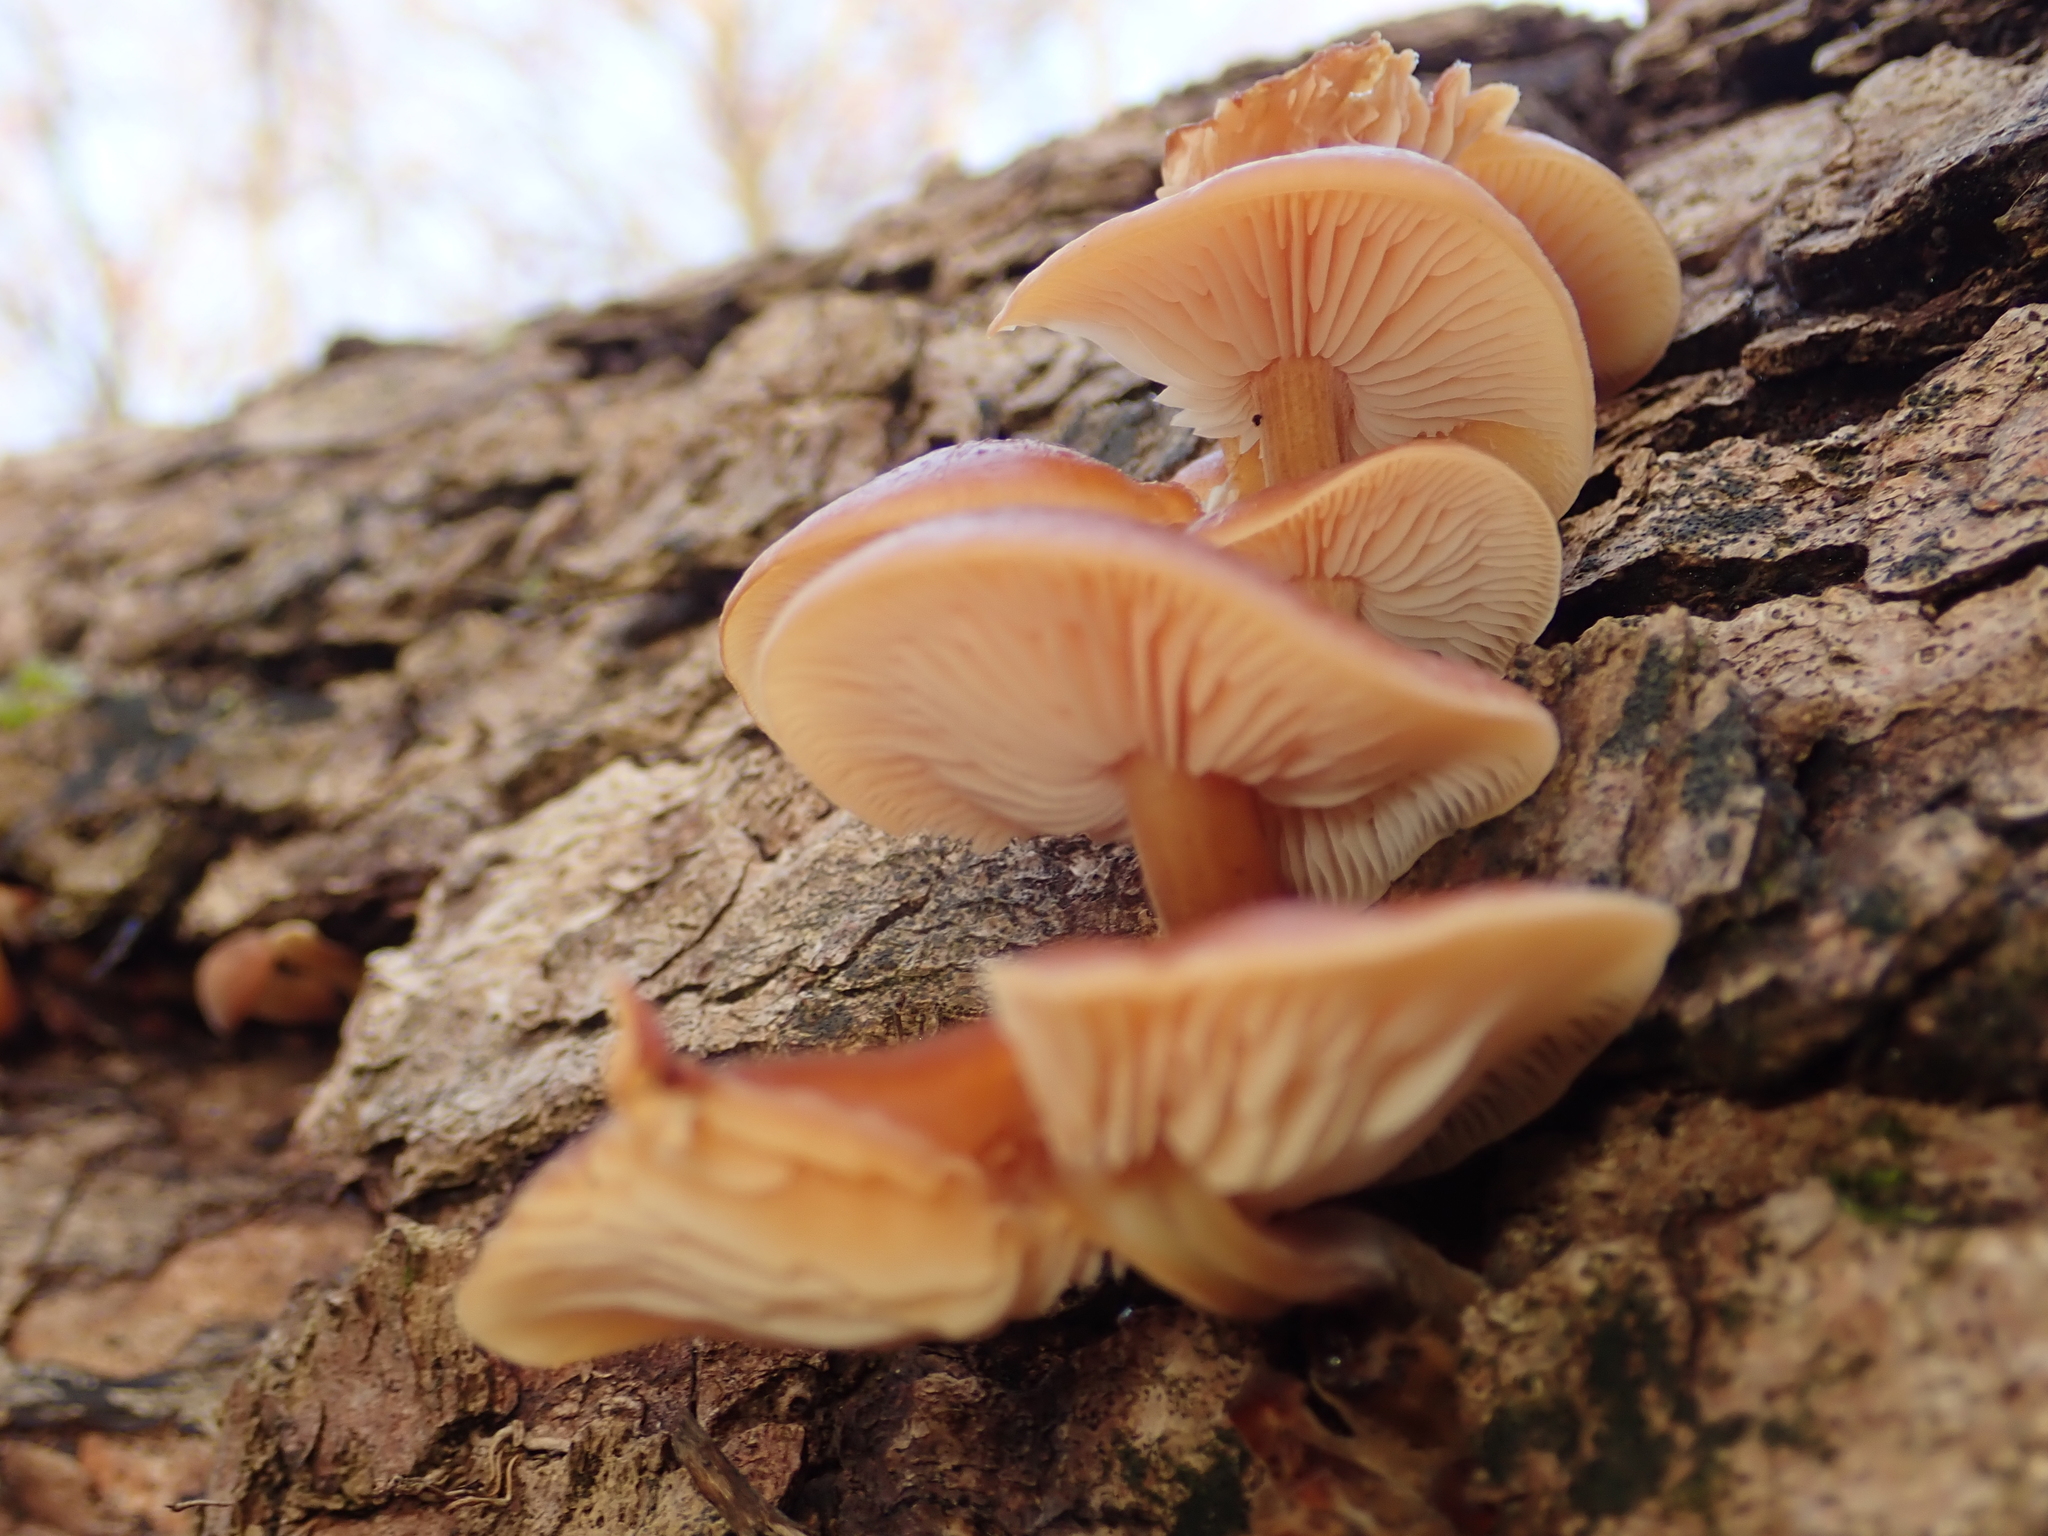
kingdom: Fungi
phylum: Basidiomycota
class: Agaricomycetes
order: Agaricales
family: Physalacriaceae
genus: Flammulina
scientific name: Flammulina
